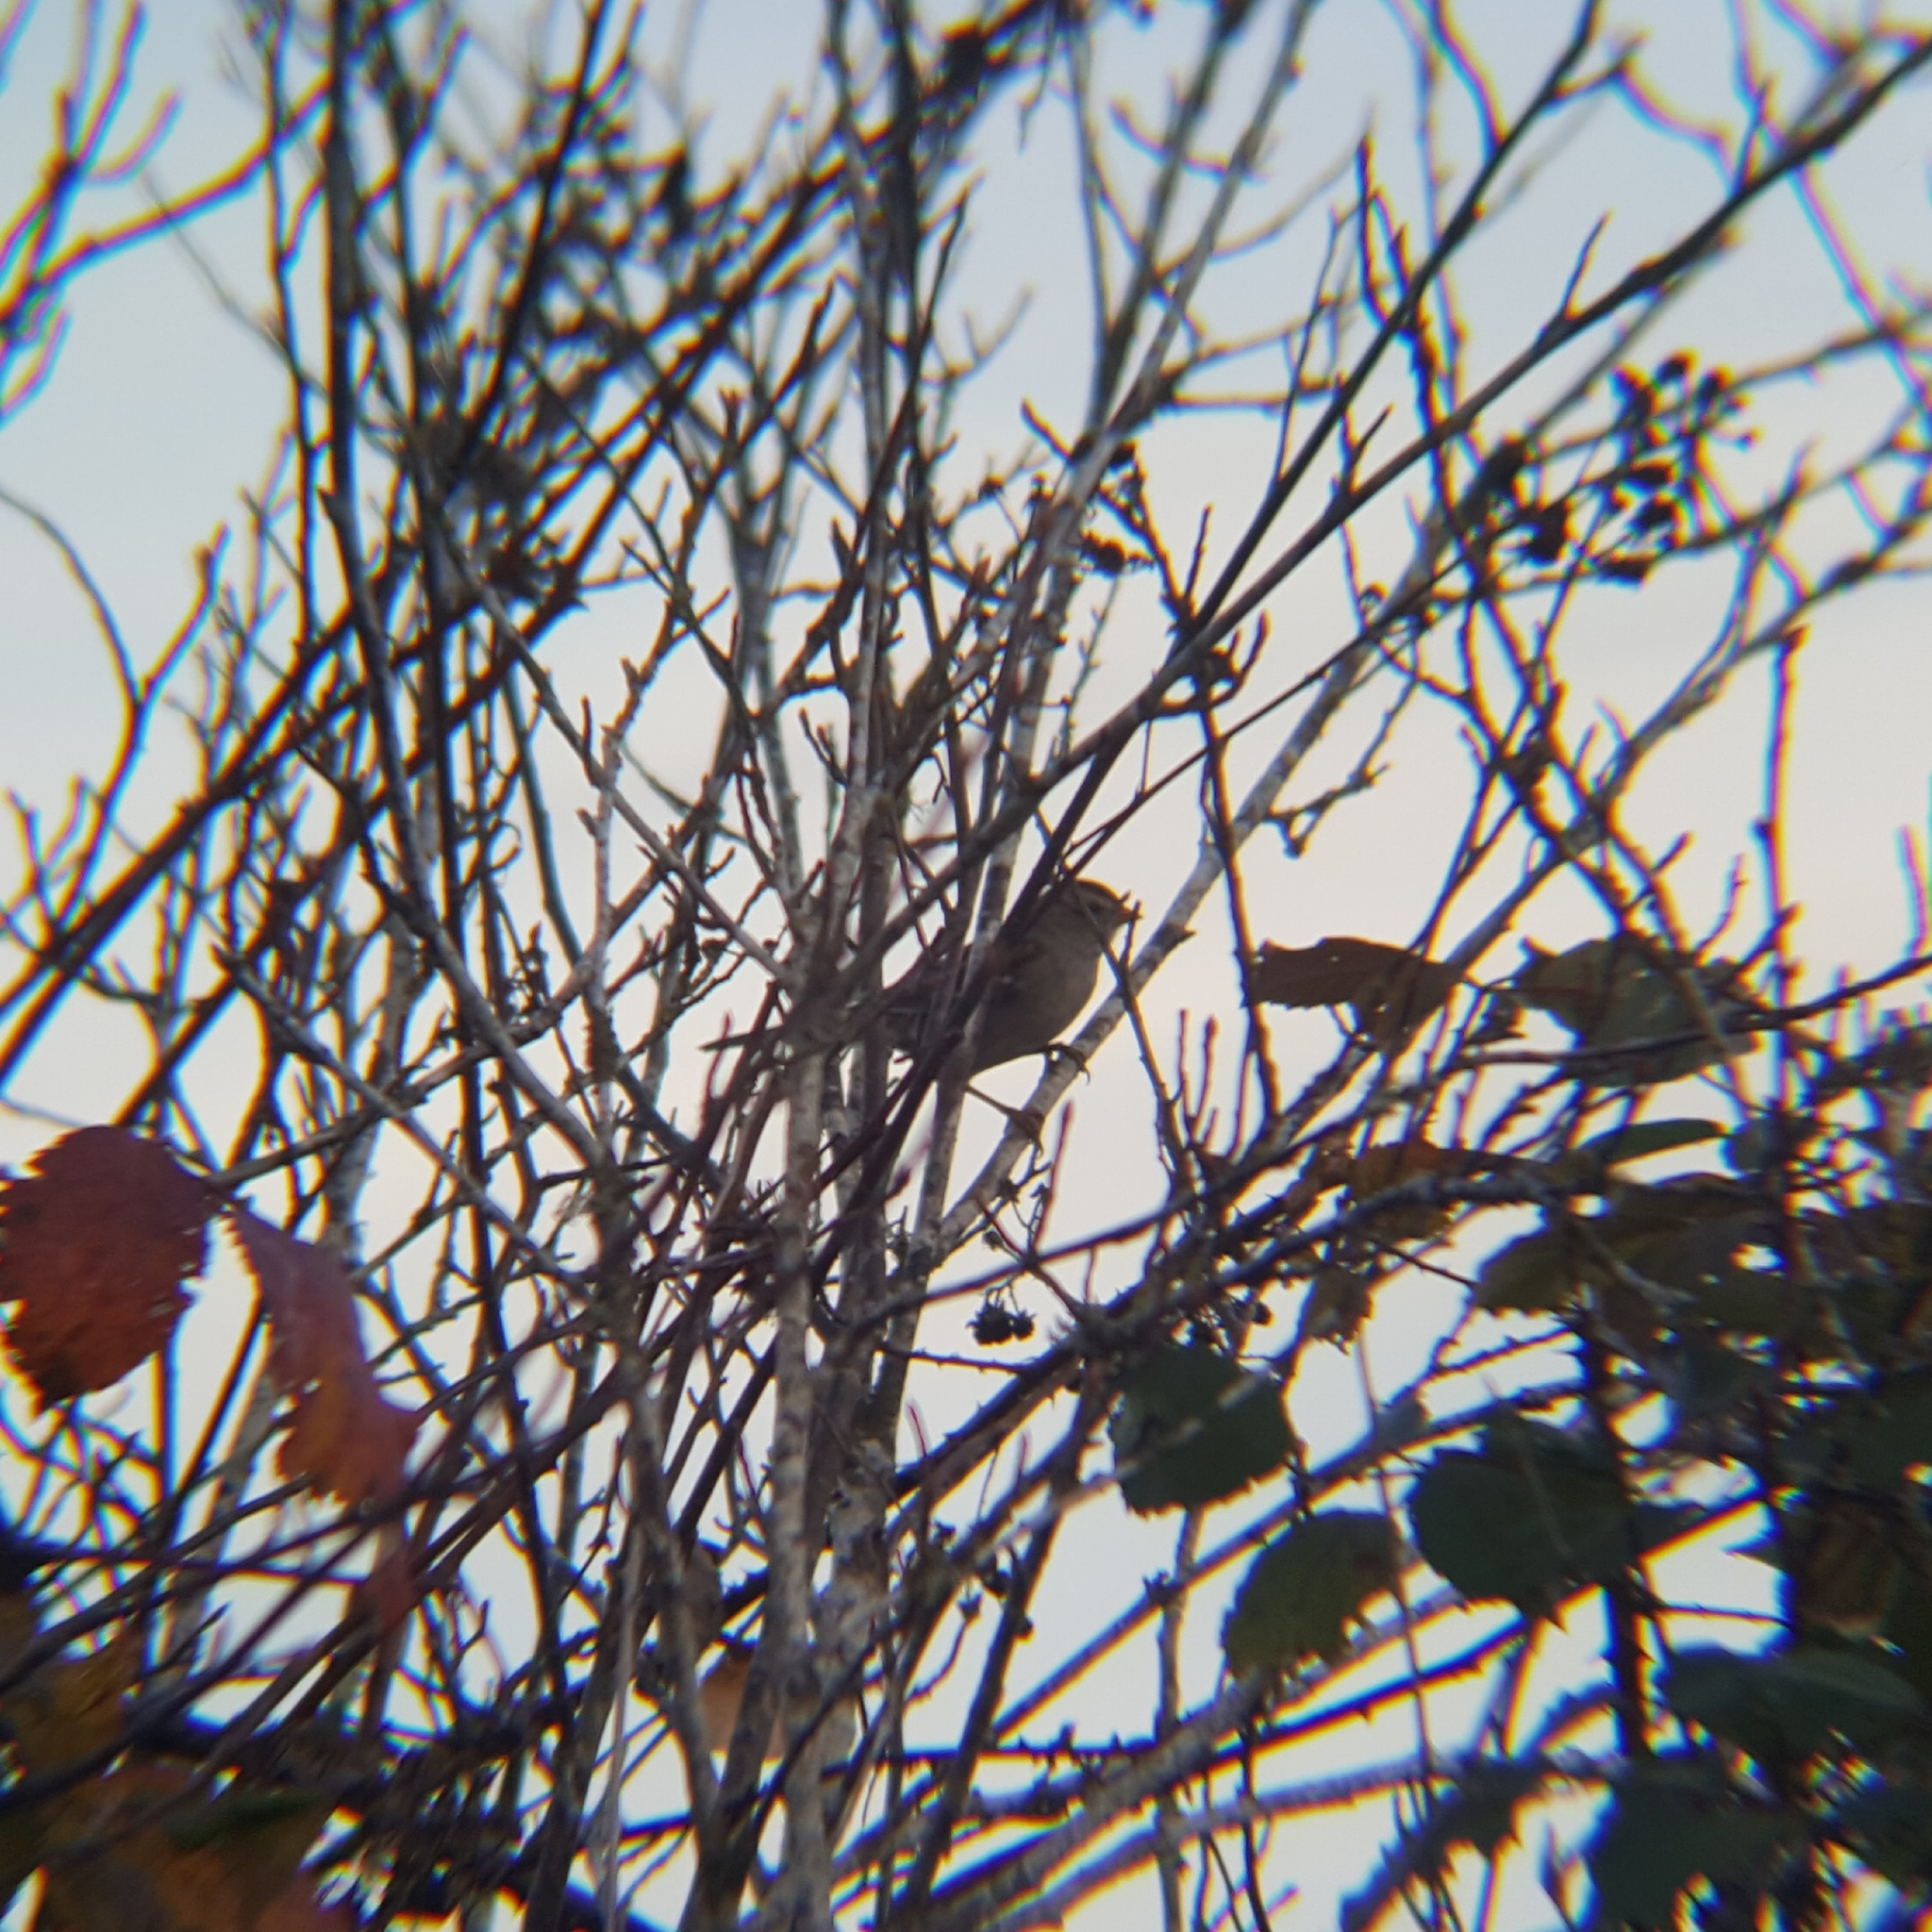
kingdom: Animalia
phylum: Chordata
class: Aves
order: Passeriformes
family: Passerellidae
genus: Zonotrichia
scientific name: Zonotrichia leucophrys
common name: White-crowned sparrow
